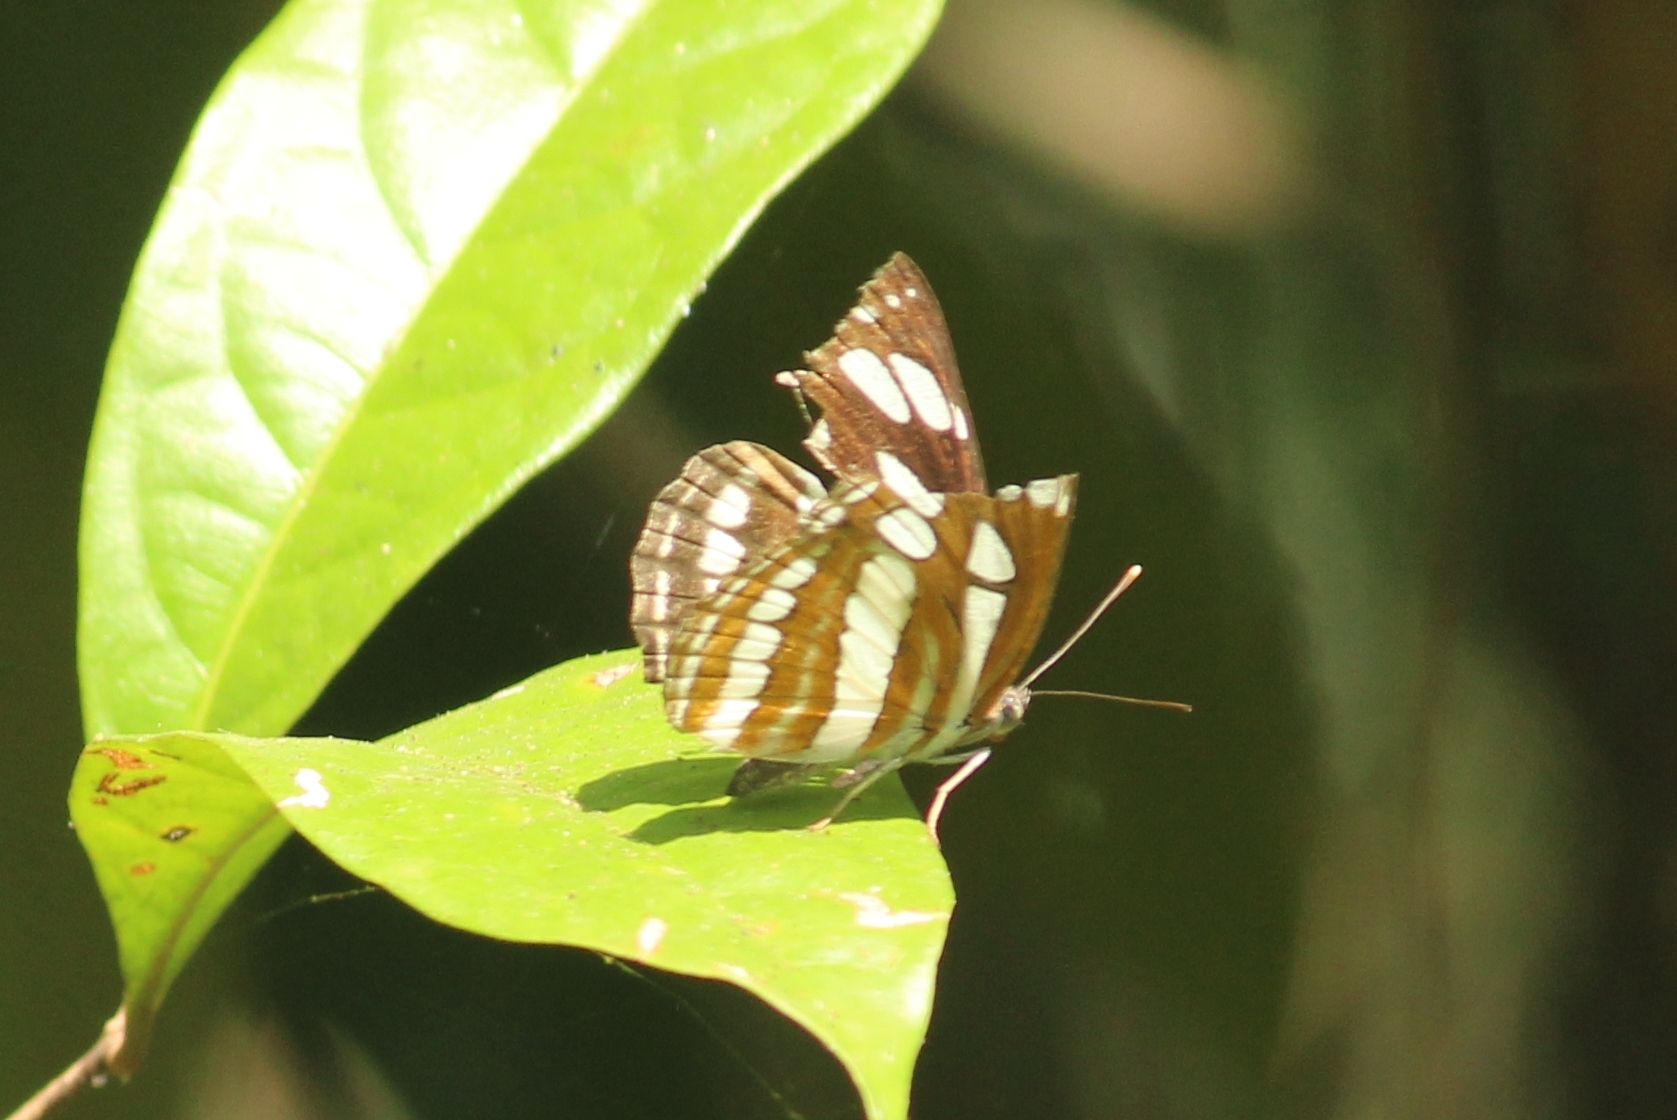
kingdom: Animalia
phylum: Arthropoda
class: Insecta
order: Lepidoptera
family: Nymphalidae
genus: Neptis
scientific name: Neptis hylas
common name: Common sailer
